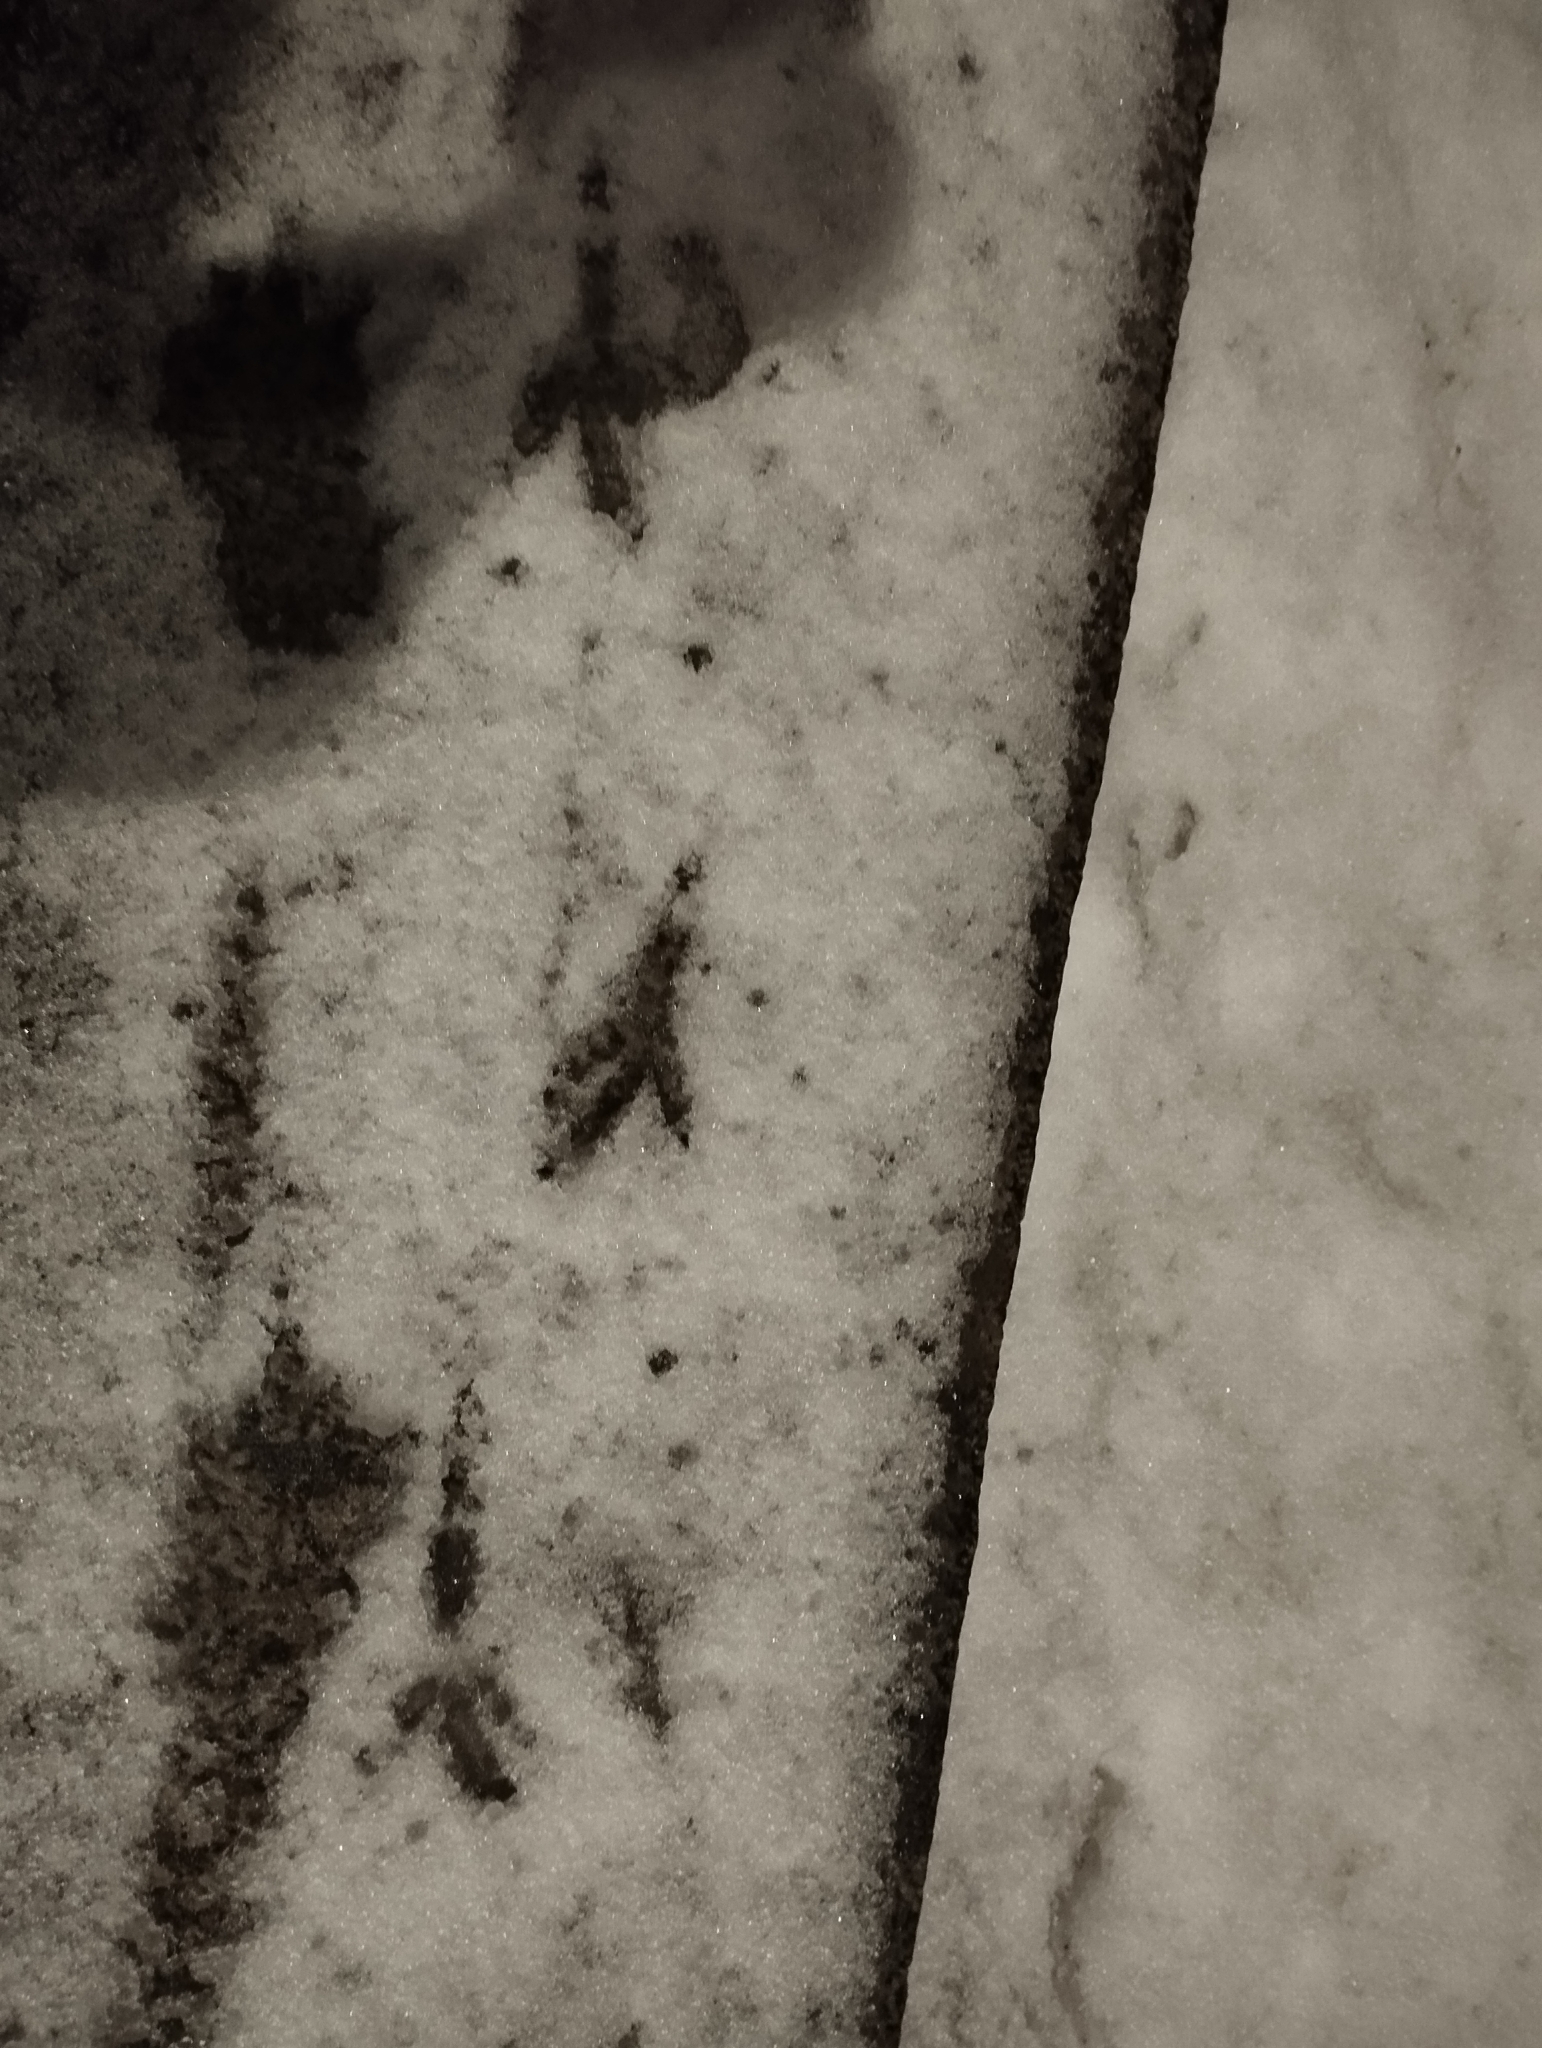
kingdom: Animalia
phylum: Chordata
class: Aves
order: Passeriformes
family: Corvidae
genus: Corvus
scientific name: Corvus cornix
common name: Hooded crow
